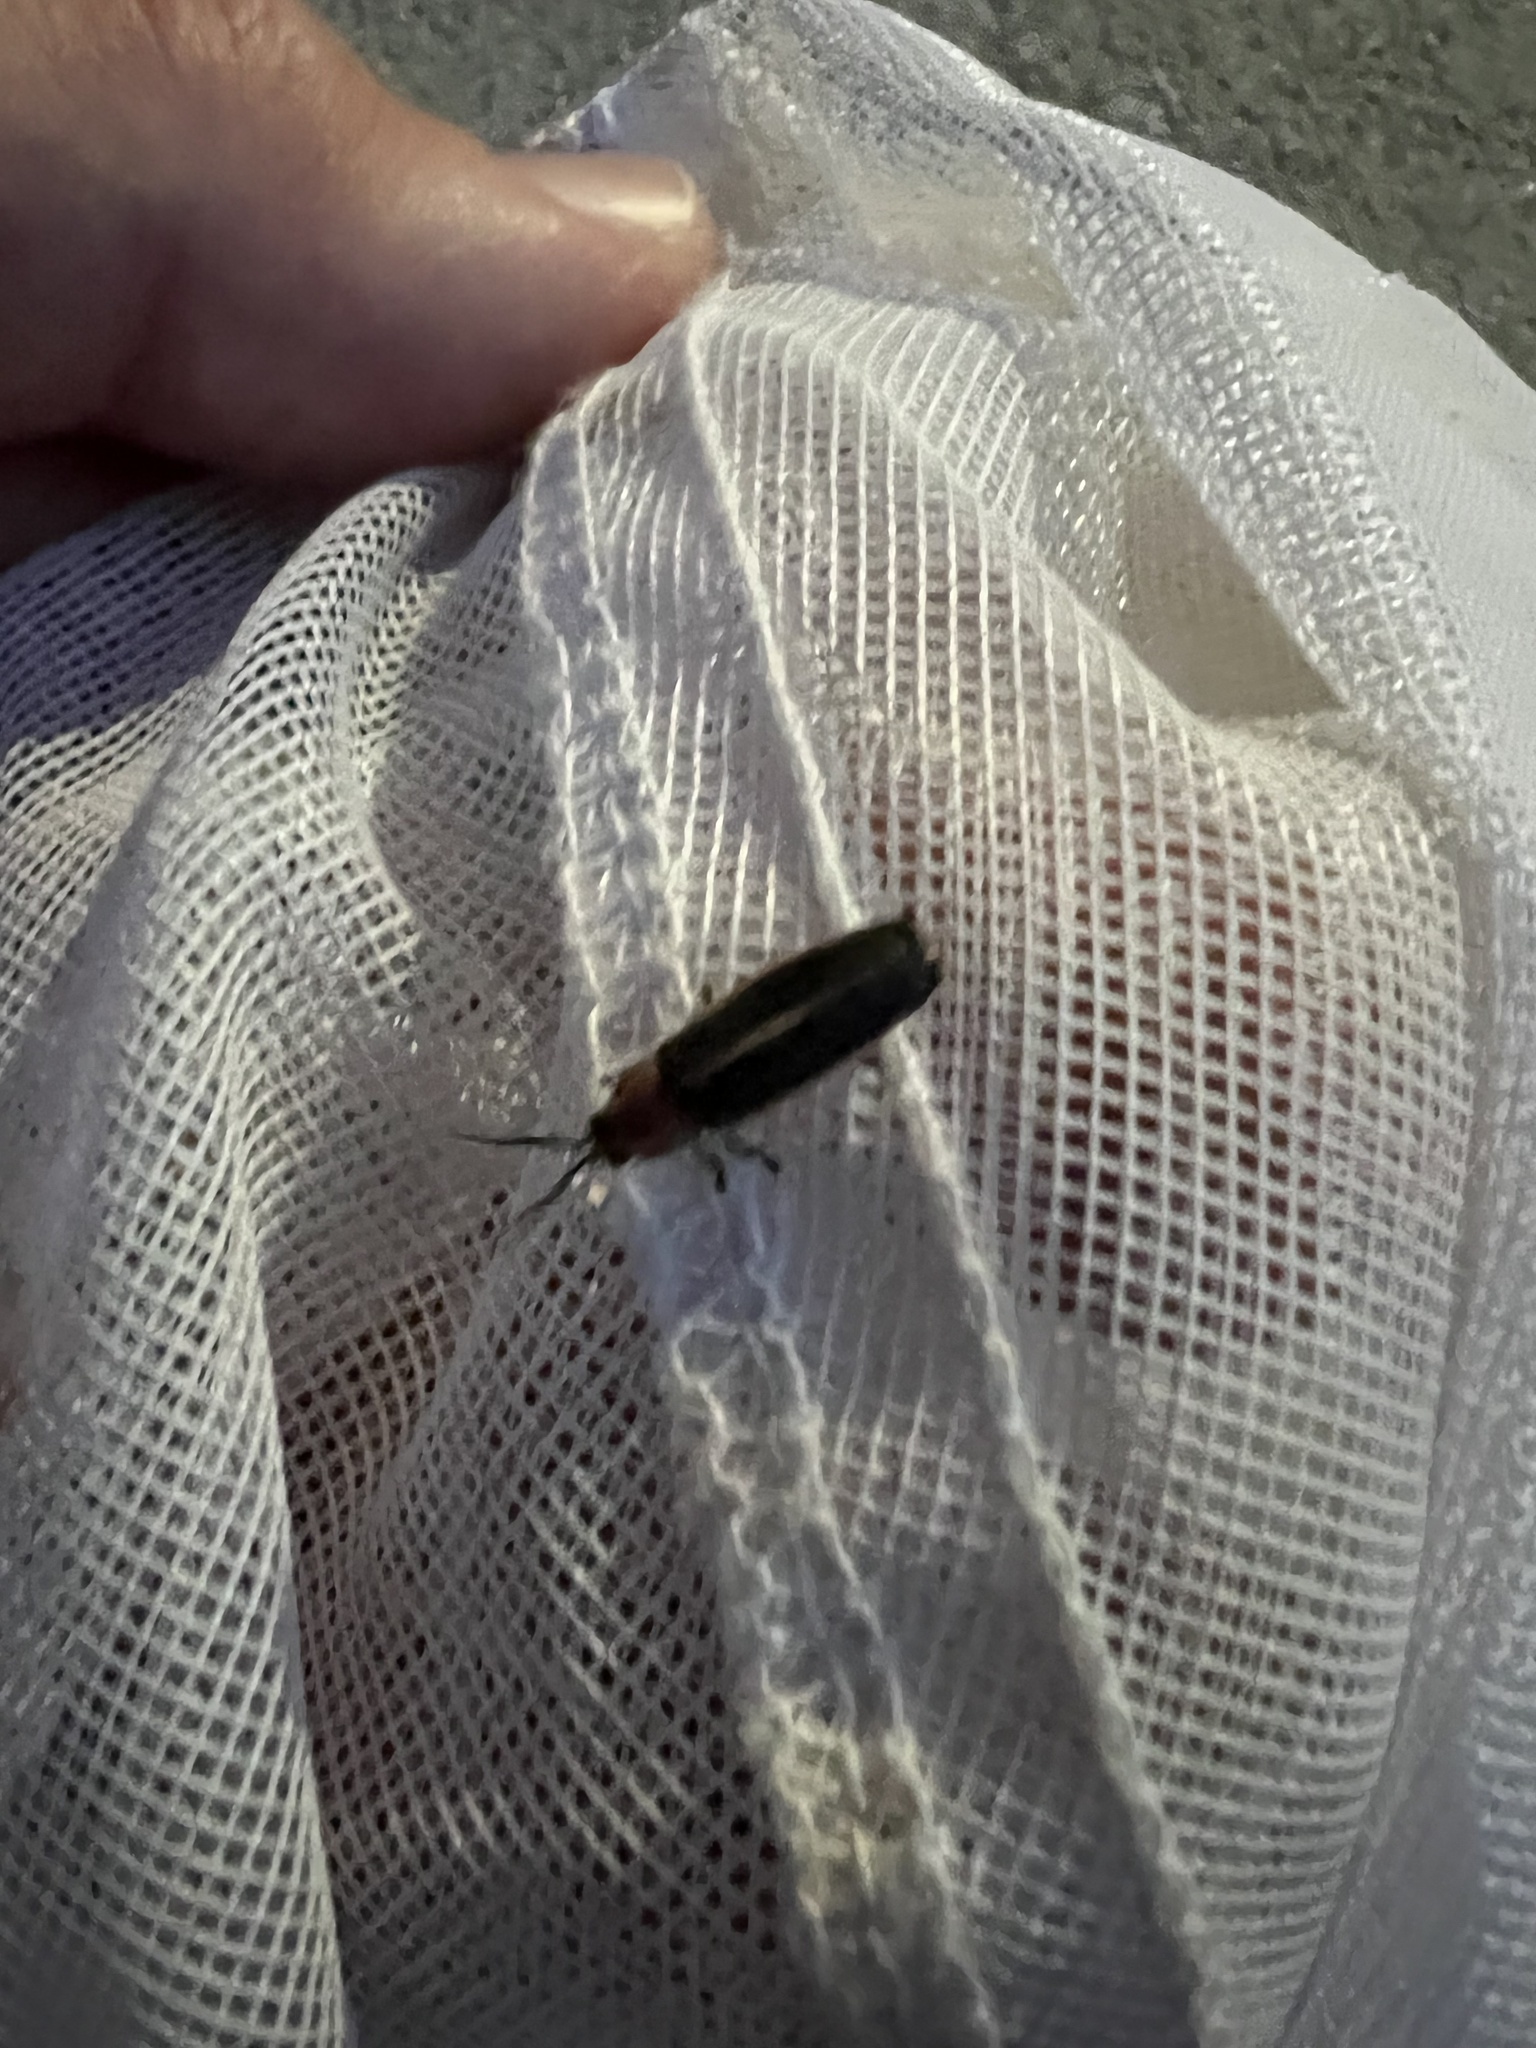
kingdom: Animalia
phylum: Arthropoda
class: Insecta
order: Coleoptera
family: Lampyridae
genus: Photinus
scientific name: Photinus pyralis
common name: Big dipper firefly
